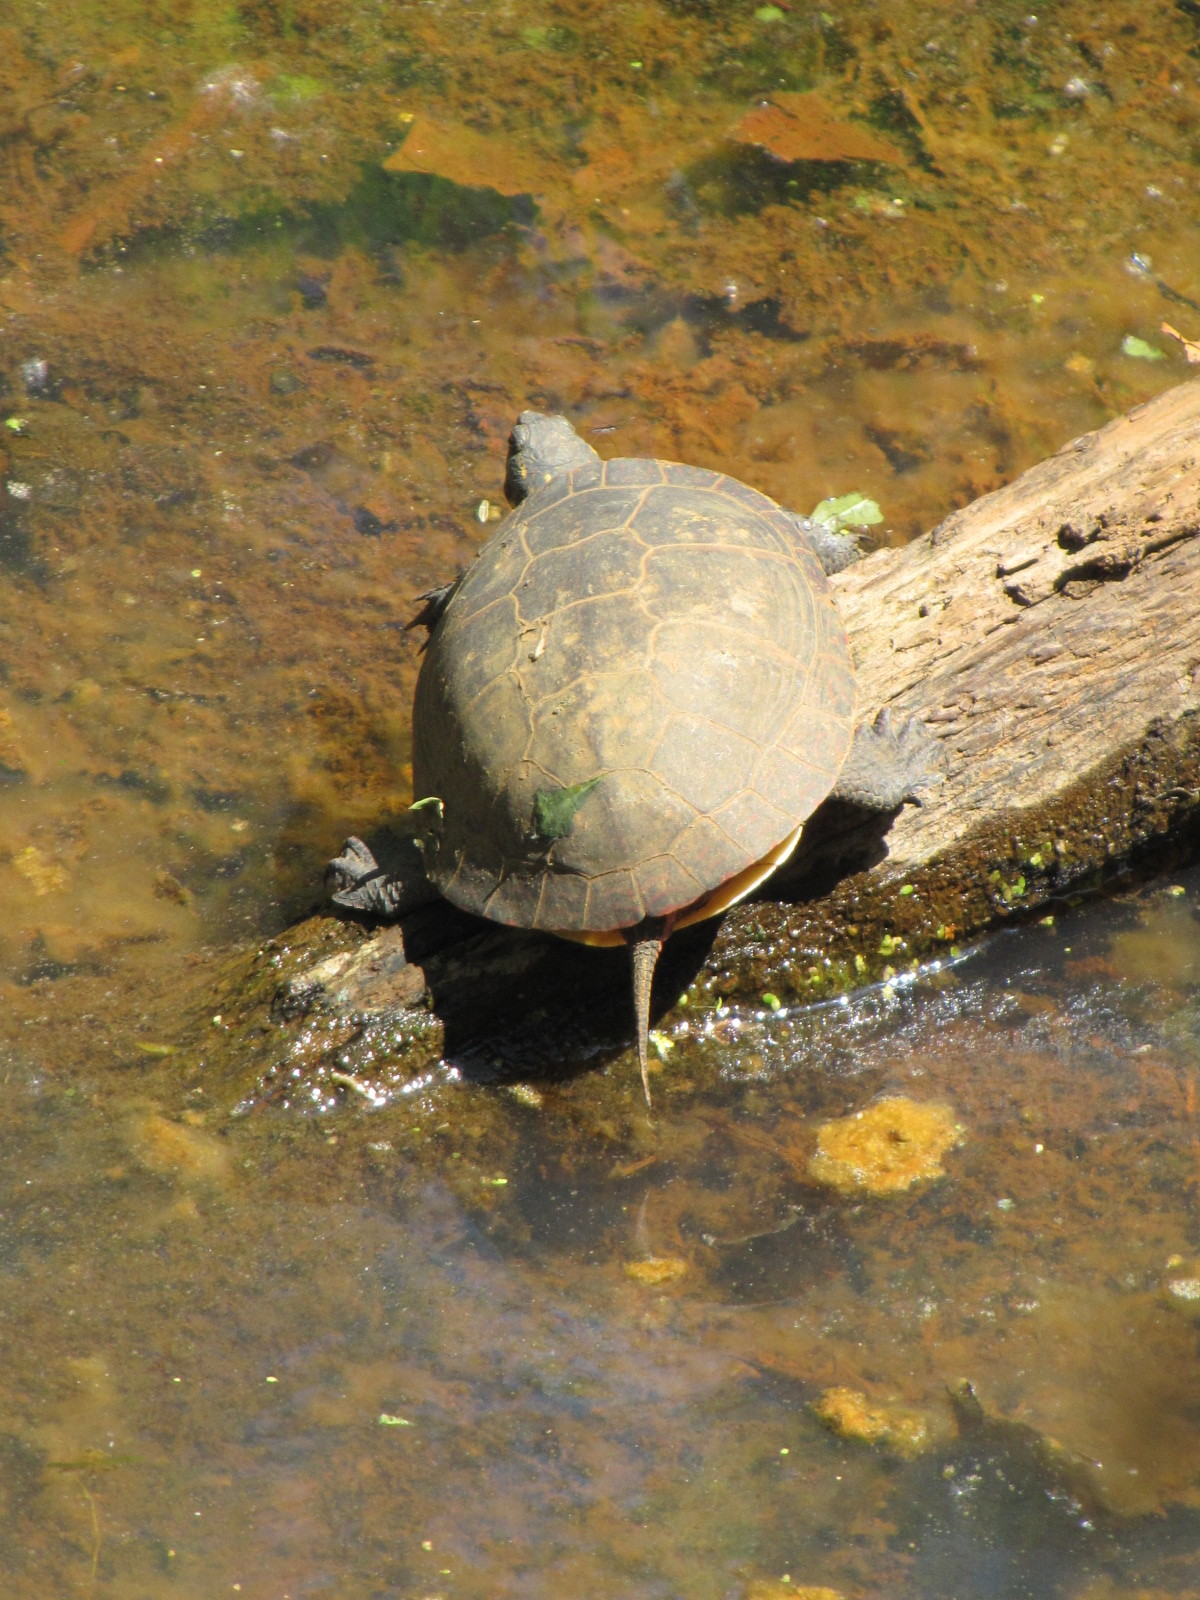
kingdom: Animalia
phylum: Chordata
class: Testudines
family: Emydidae
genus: Chrysemys
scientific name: Chrysemys picta
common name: Painted turtle
